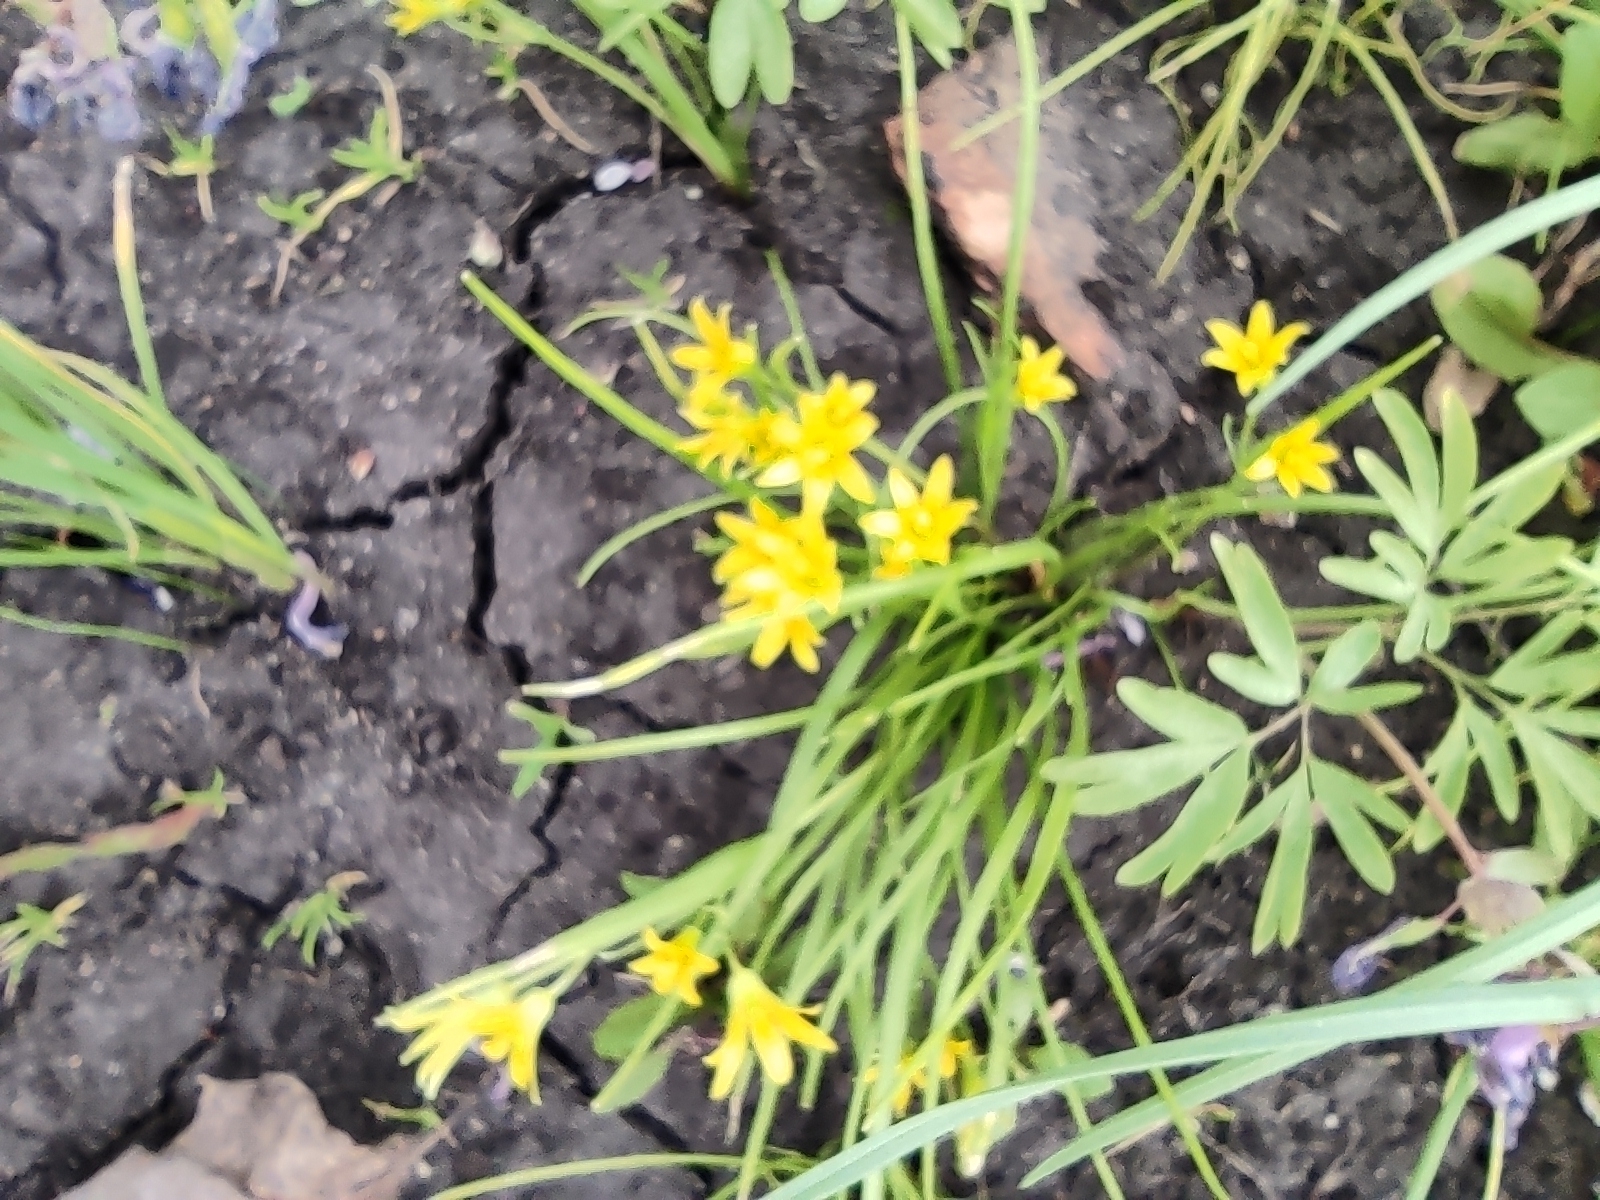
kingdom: Plantae
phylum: Tracheophyta
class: Liliopsida
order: Liliales
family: Liliaceae
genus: Gagea
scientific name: Gagea minima
